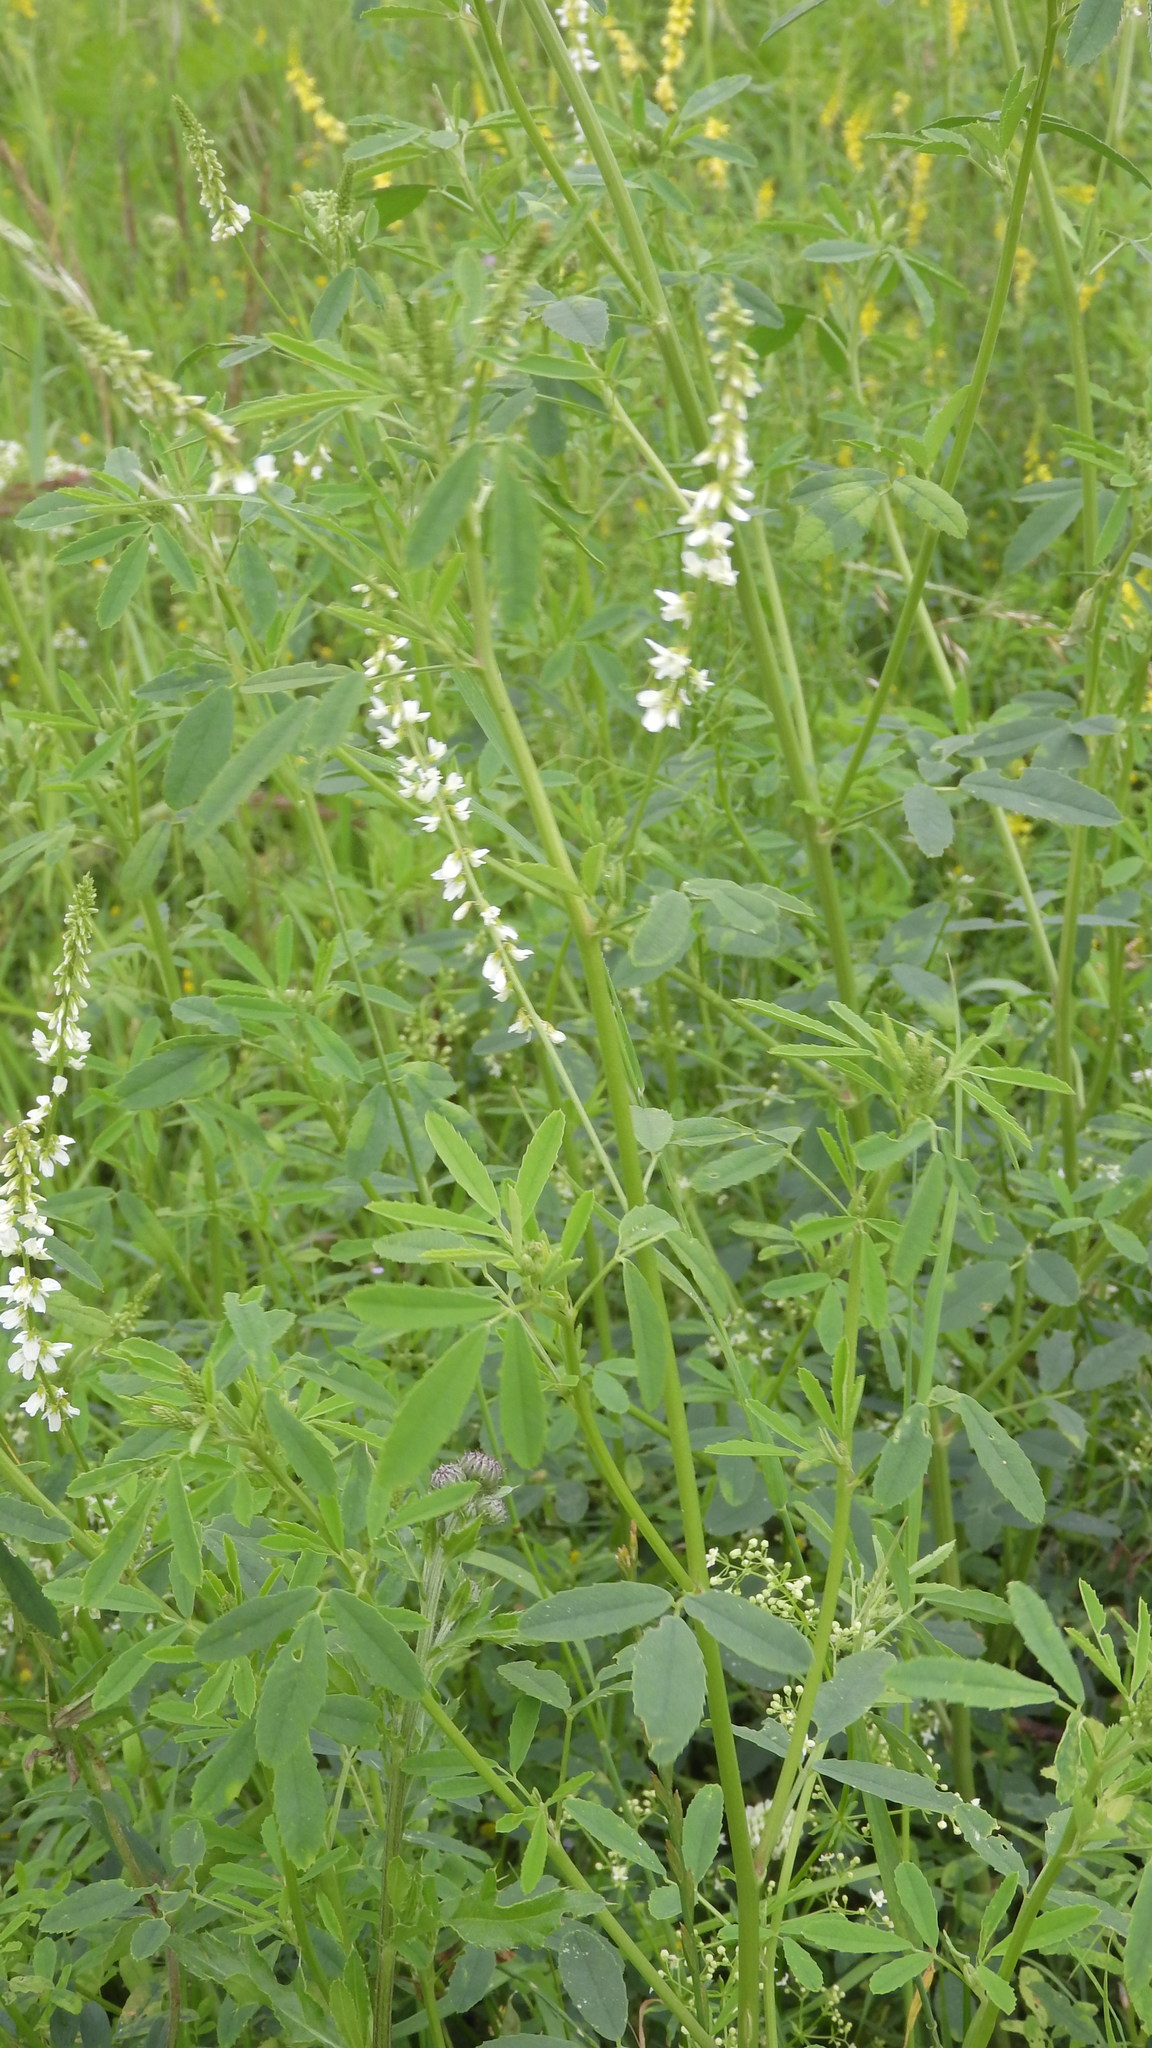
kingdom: Plantae
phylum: Tracheophyta
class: Magnoliopsida
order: Fabales
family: Fabaceae
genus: Melilotus
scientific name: Melilotus albus
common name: White melilot
